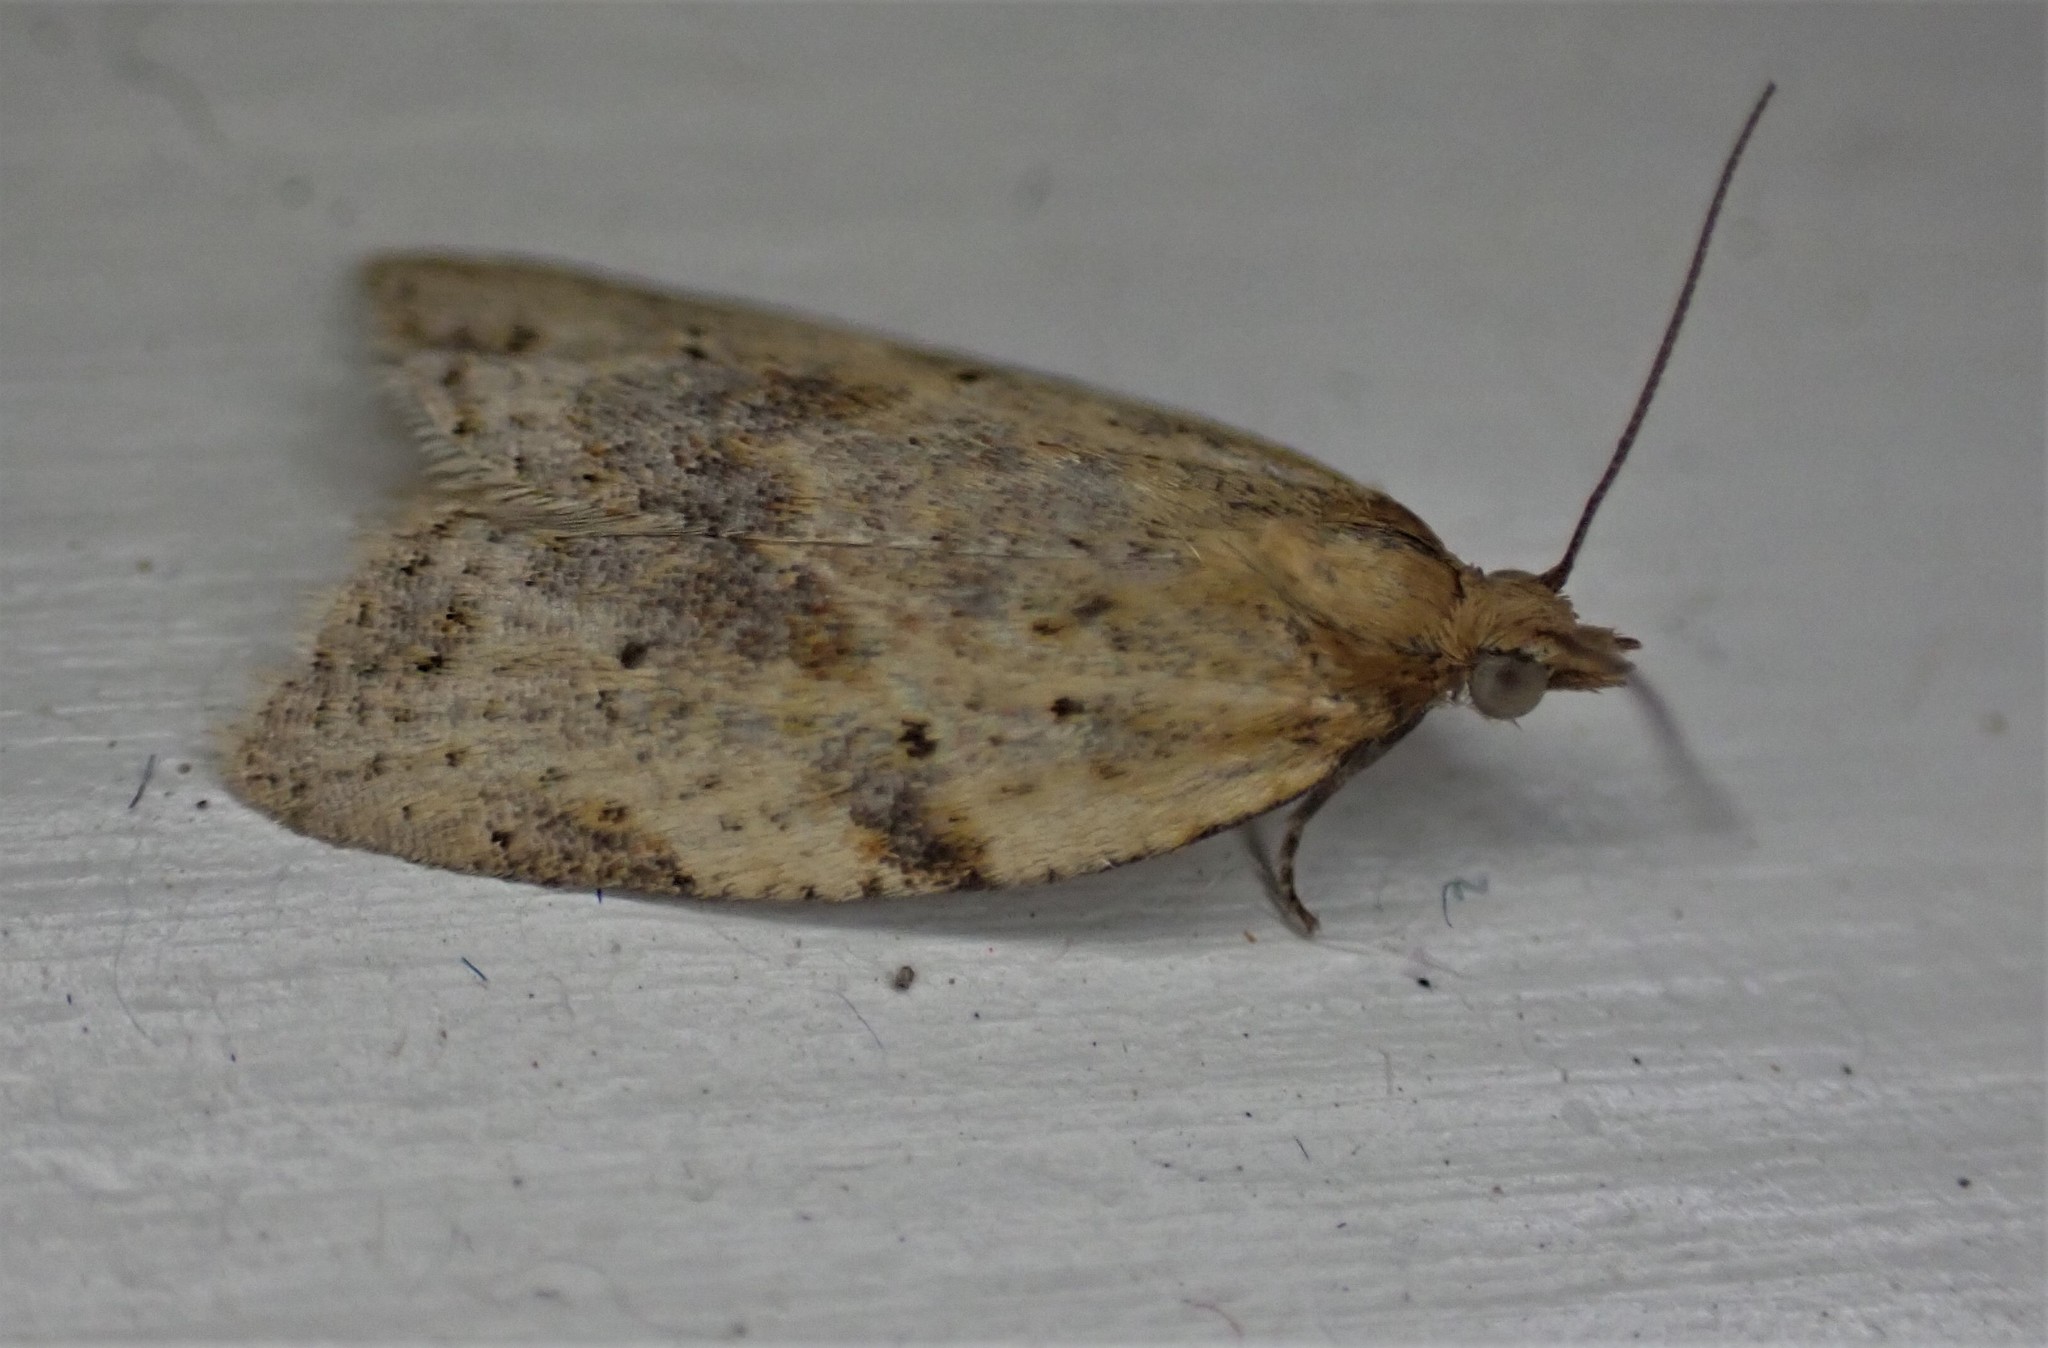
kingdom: Animalia
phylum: Arthropoda
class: Insecta
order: Lepidoptera
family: Tortricidae
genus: Clepsis
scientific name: Clepsis
